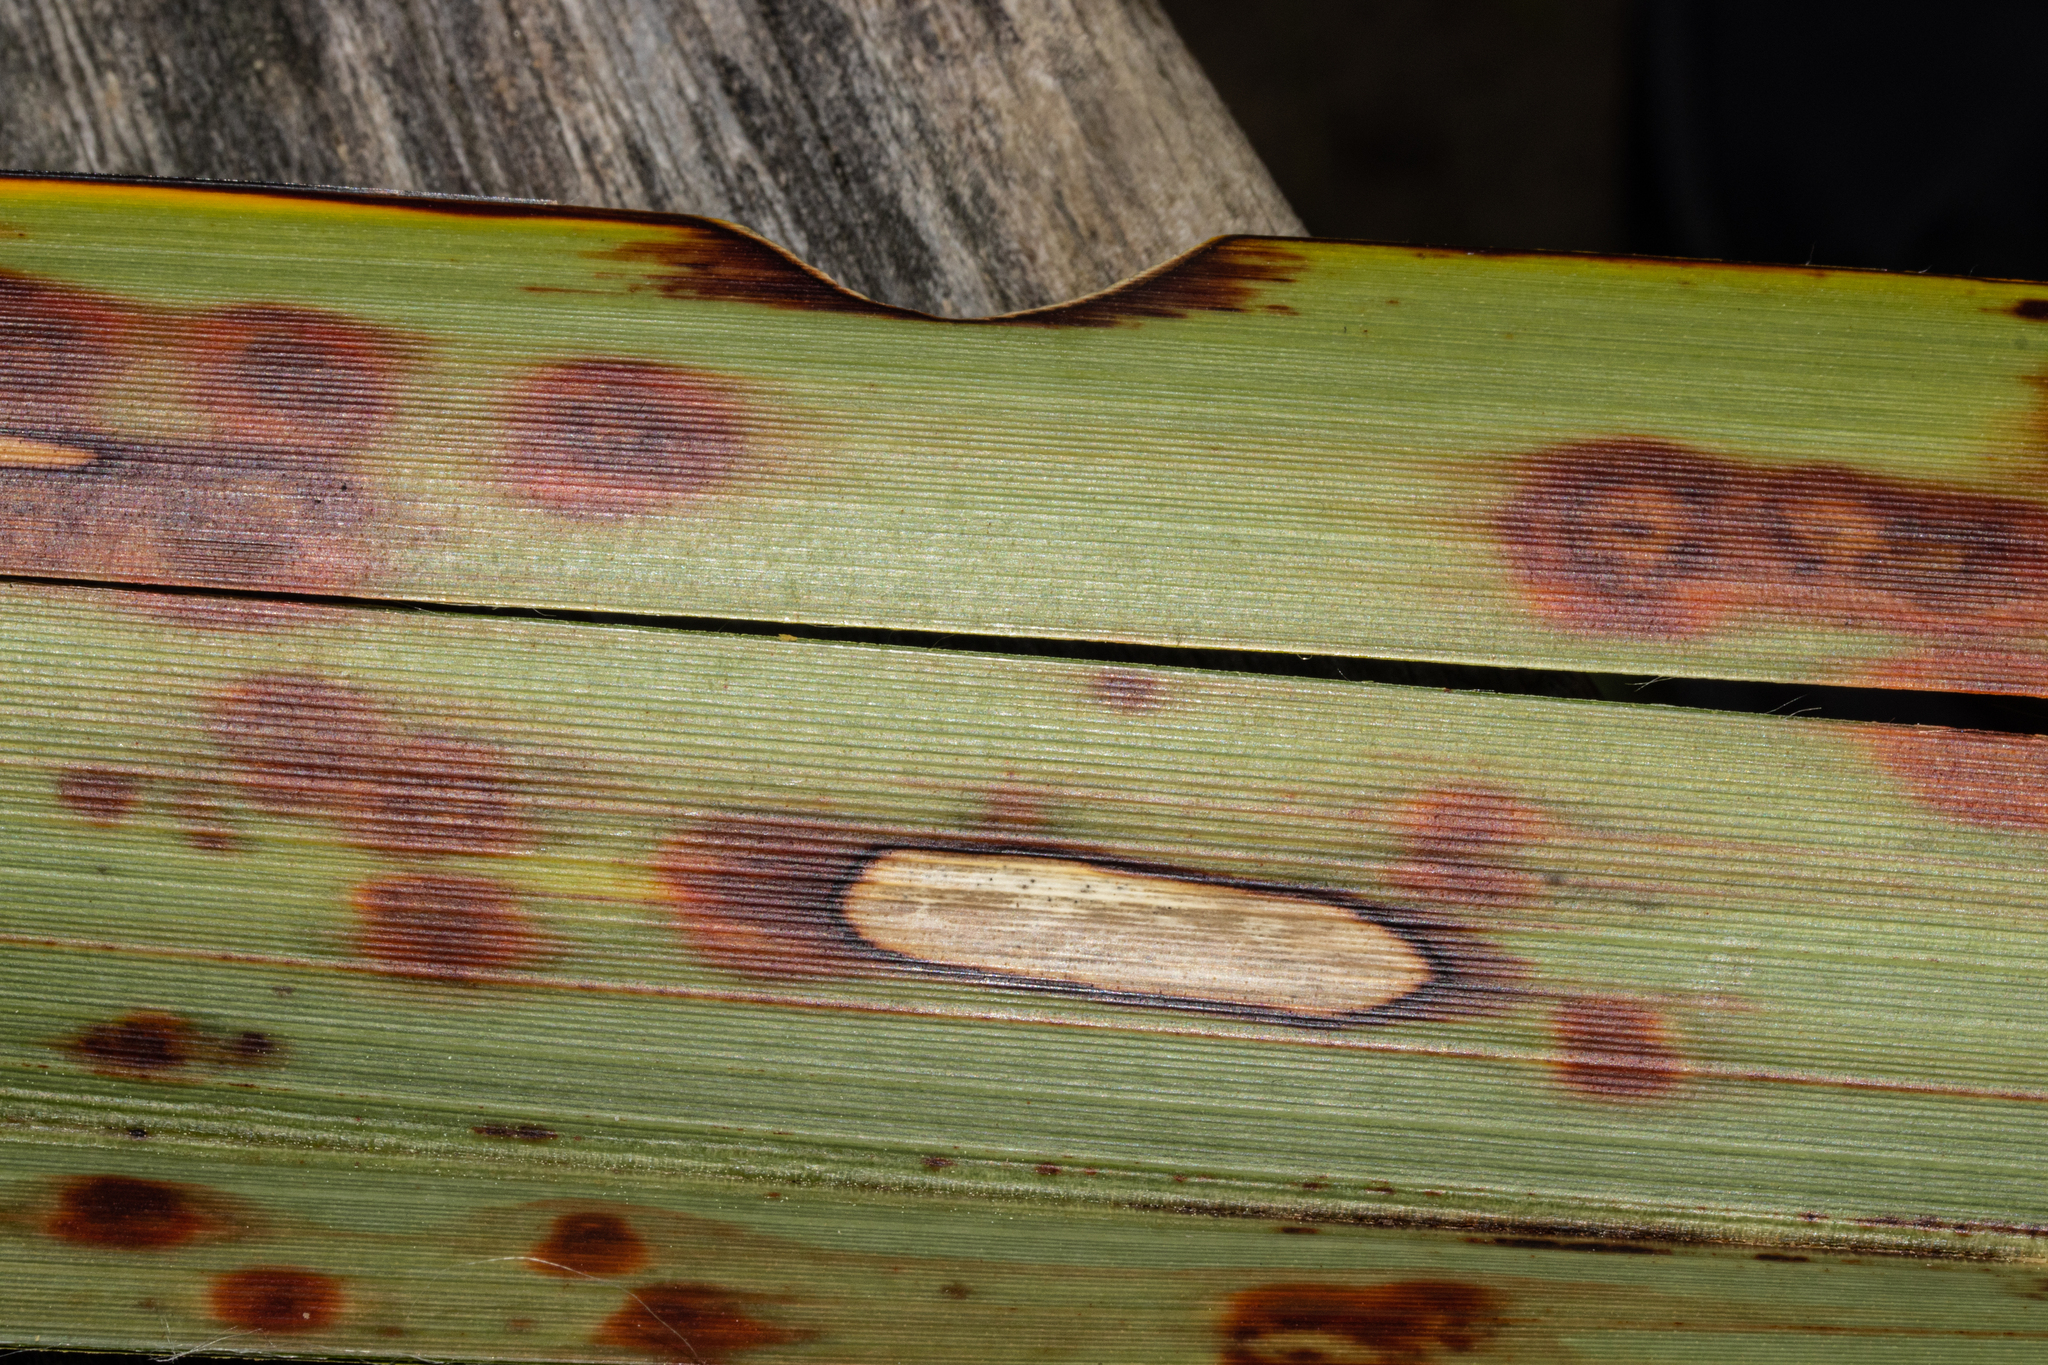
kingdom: Animalia
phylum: Arthropoda
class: Insecta
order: Lepidoptera
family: Geometridae
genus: Orthoclydon
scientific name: Orthoclydon praefectata
